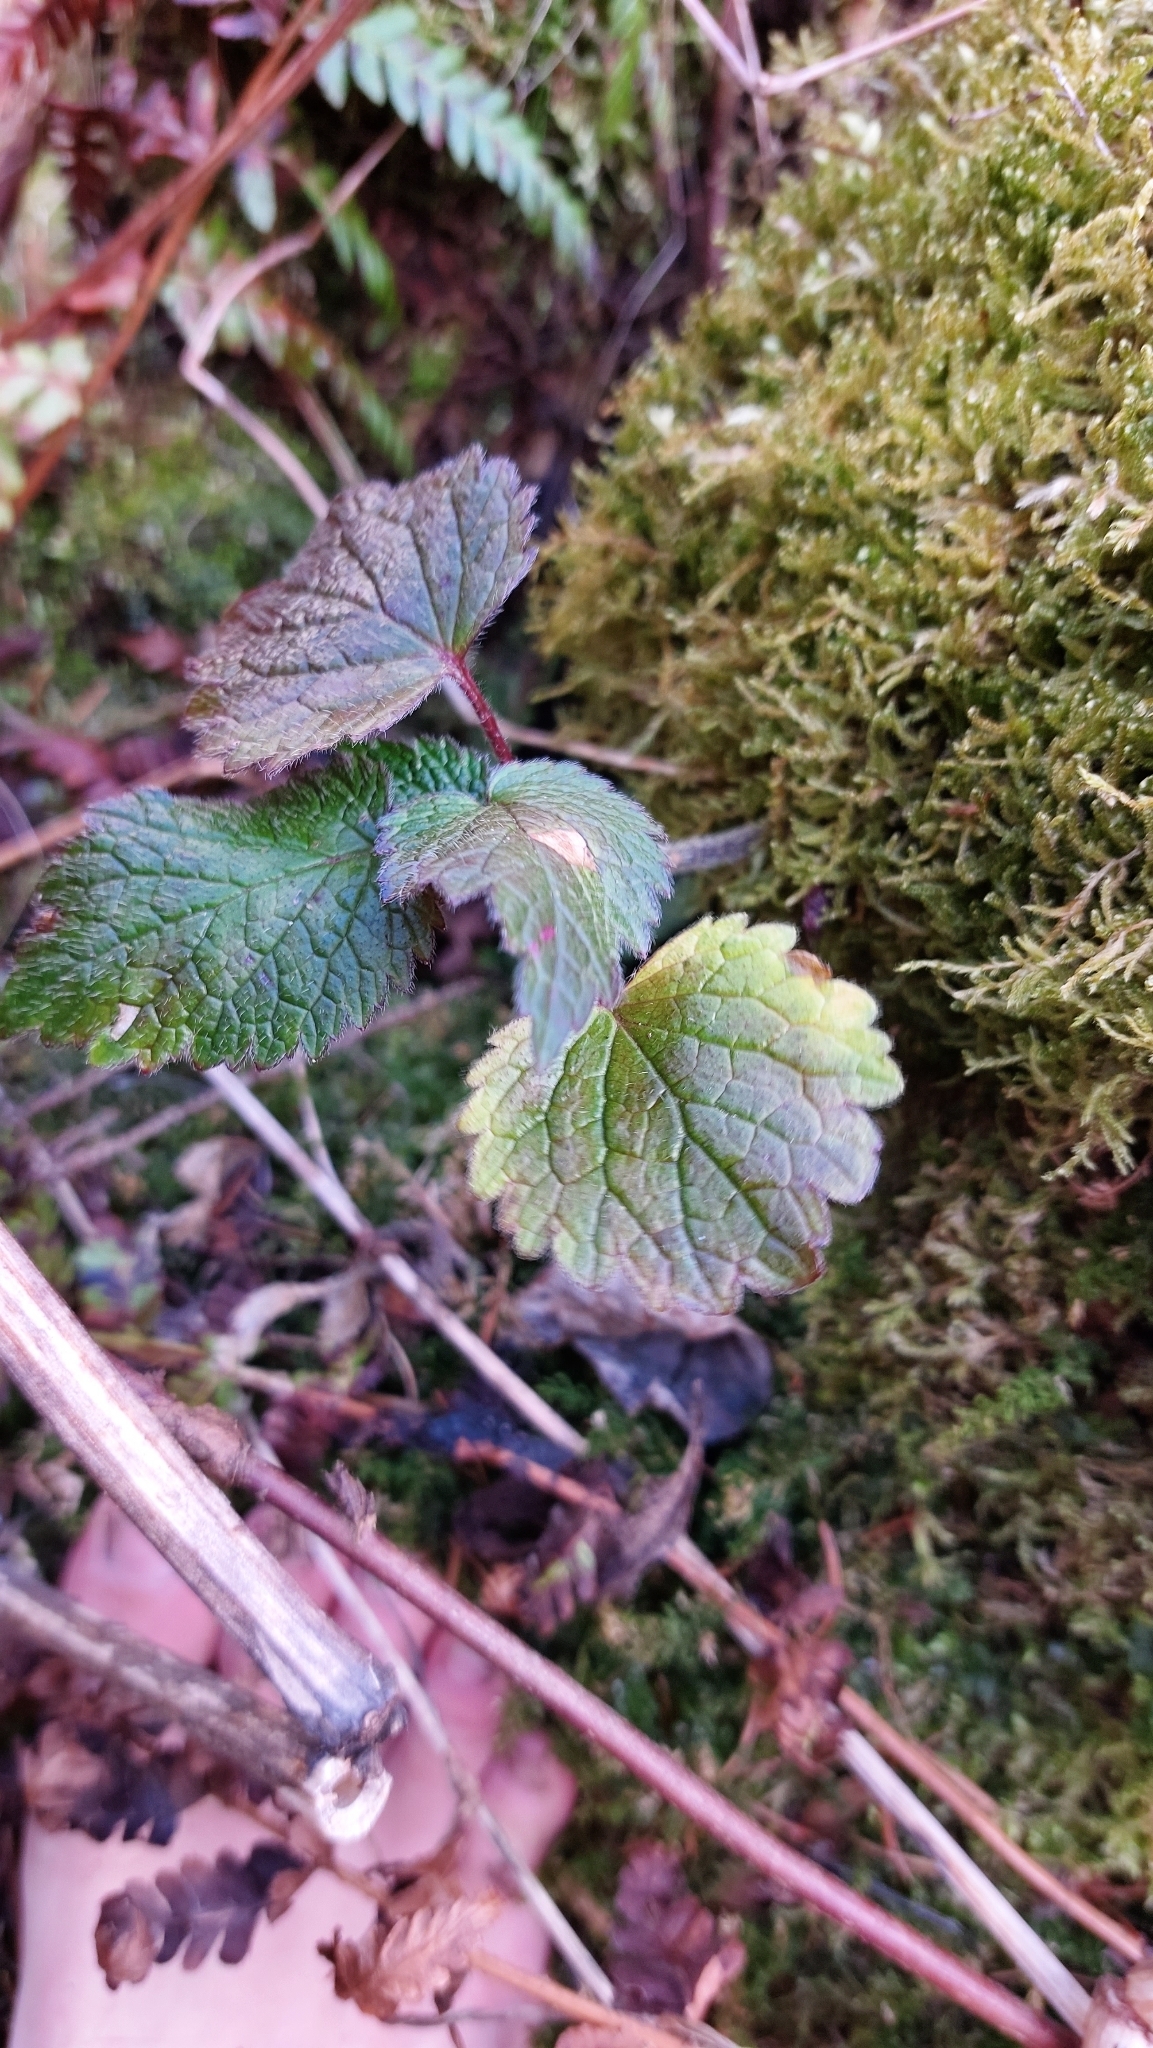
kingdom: Plantae
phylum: Tracheophyta
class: Magnoliopsida
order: Lamiales
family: Lamiaceae
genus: Lamium
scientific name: Lamium galeobdolon
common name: Yellow archangel
